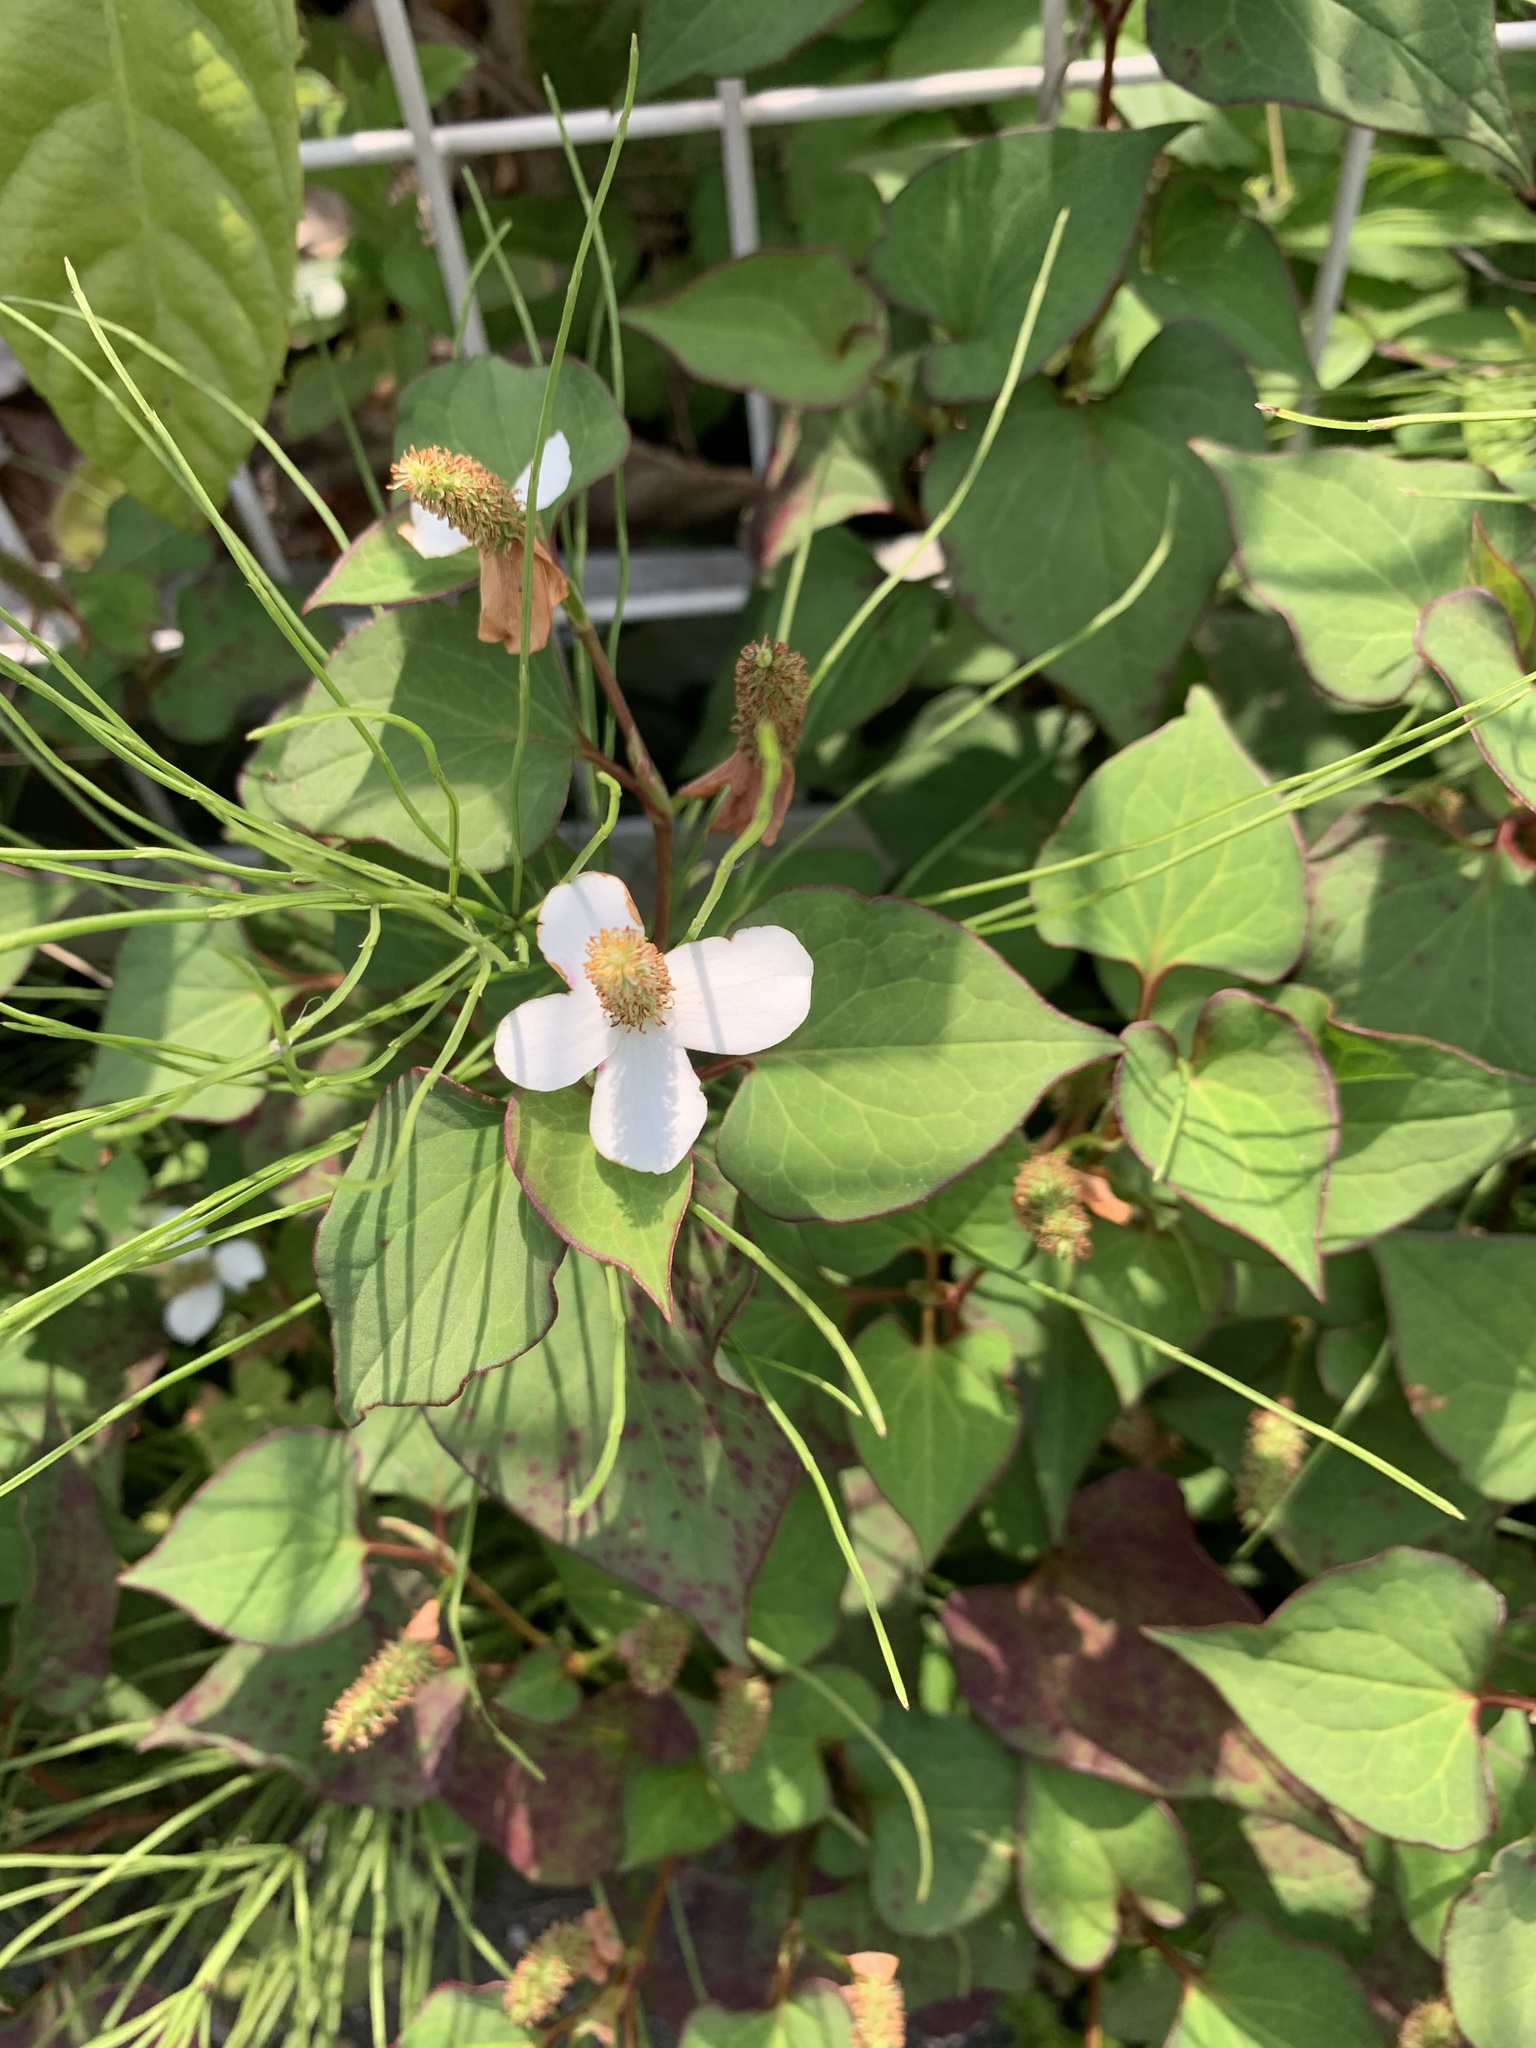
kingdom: Plantae
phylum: Tracheophyta
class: Magnoliopsida
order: Piperales
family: Saururaceae
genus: Houttuynia
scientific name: Houttuynia cordata
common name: Chameleon
